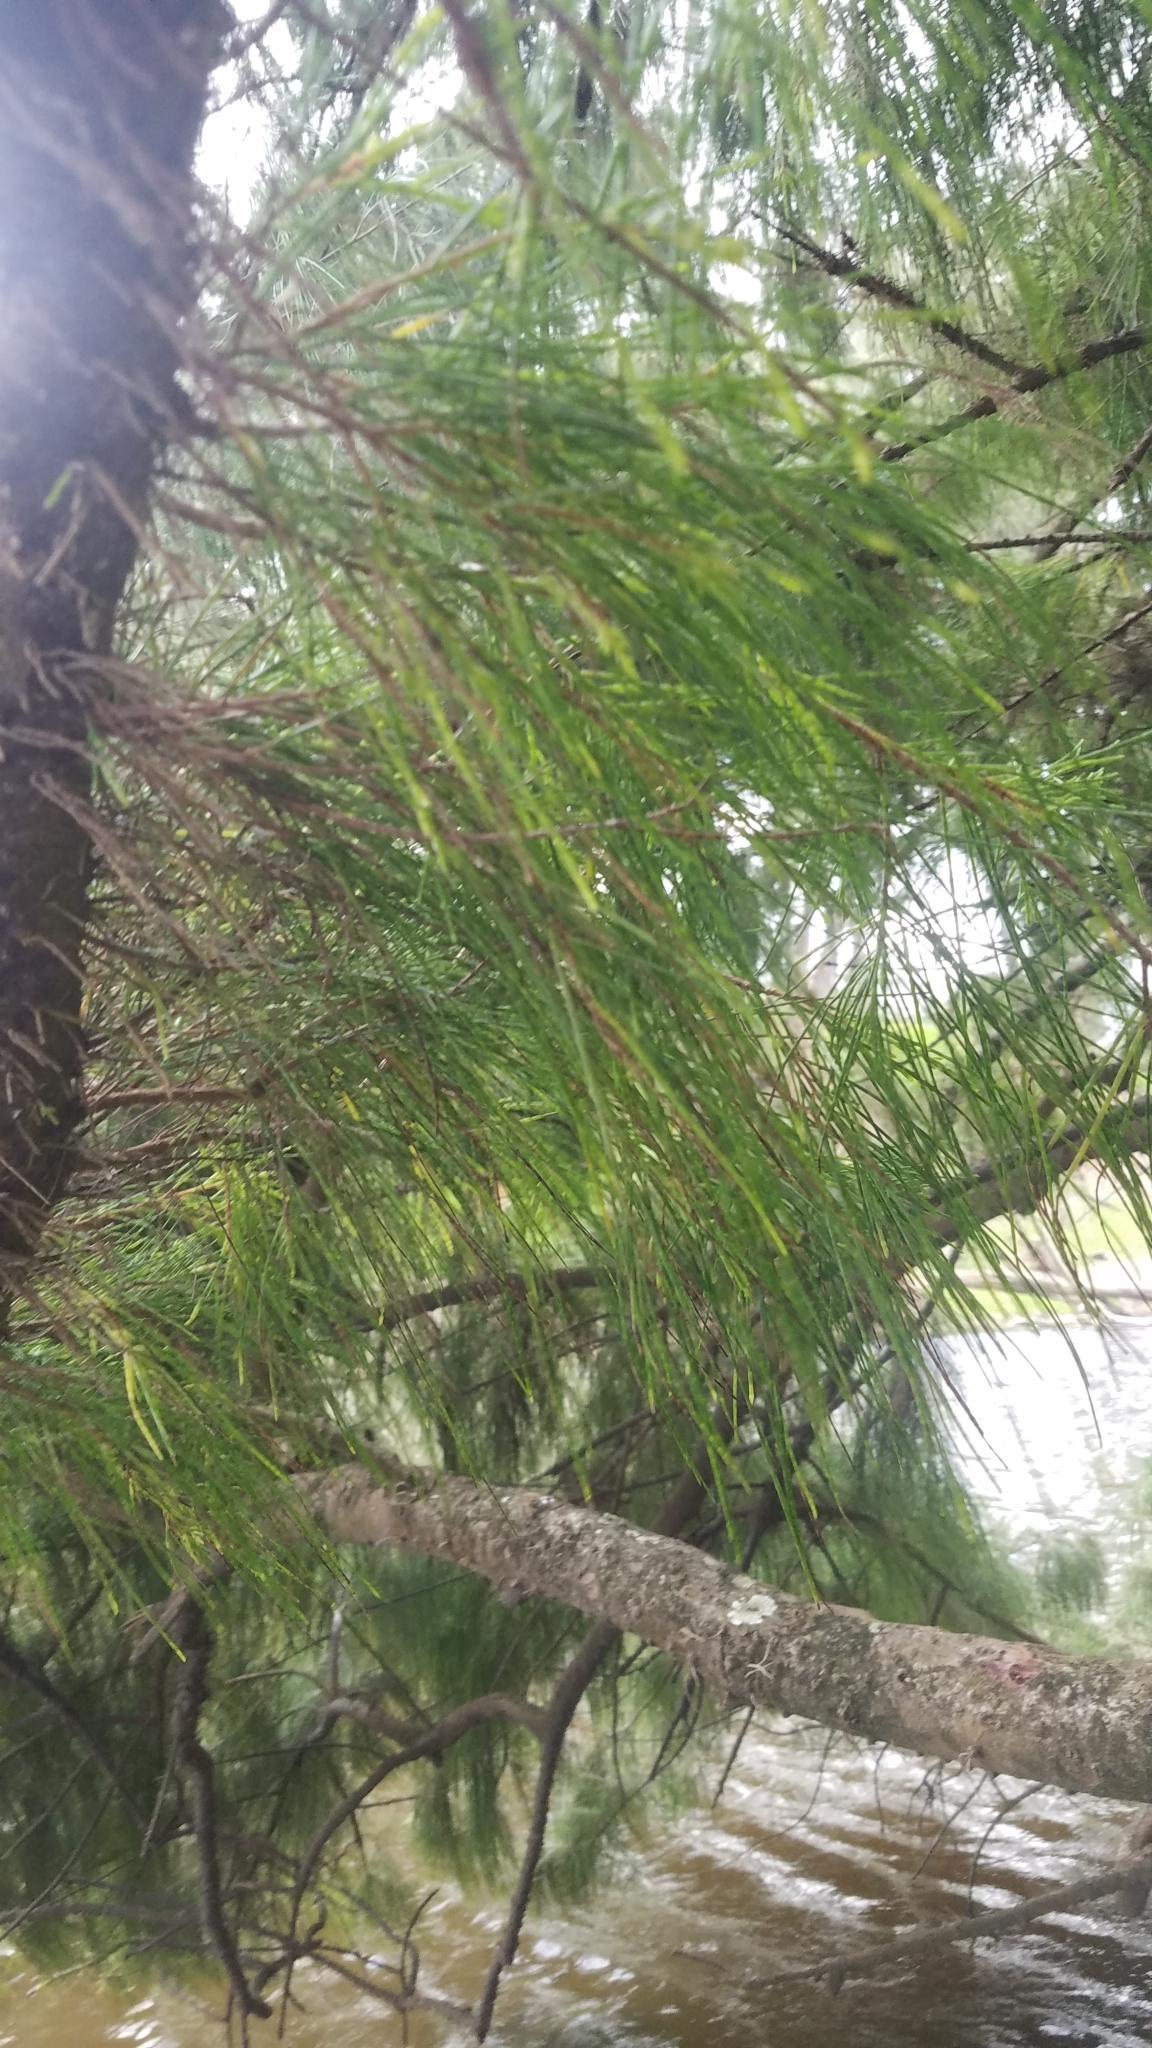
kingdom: Plantae
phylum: Tracheophyta
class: Magnoliopsida
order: Fagales
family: Casuarinaceae
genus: Casuarina
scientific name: Casuarina equisetifolia
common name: Beach sheoak
